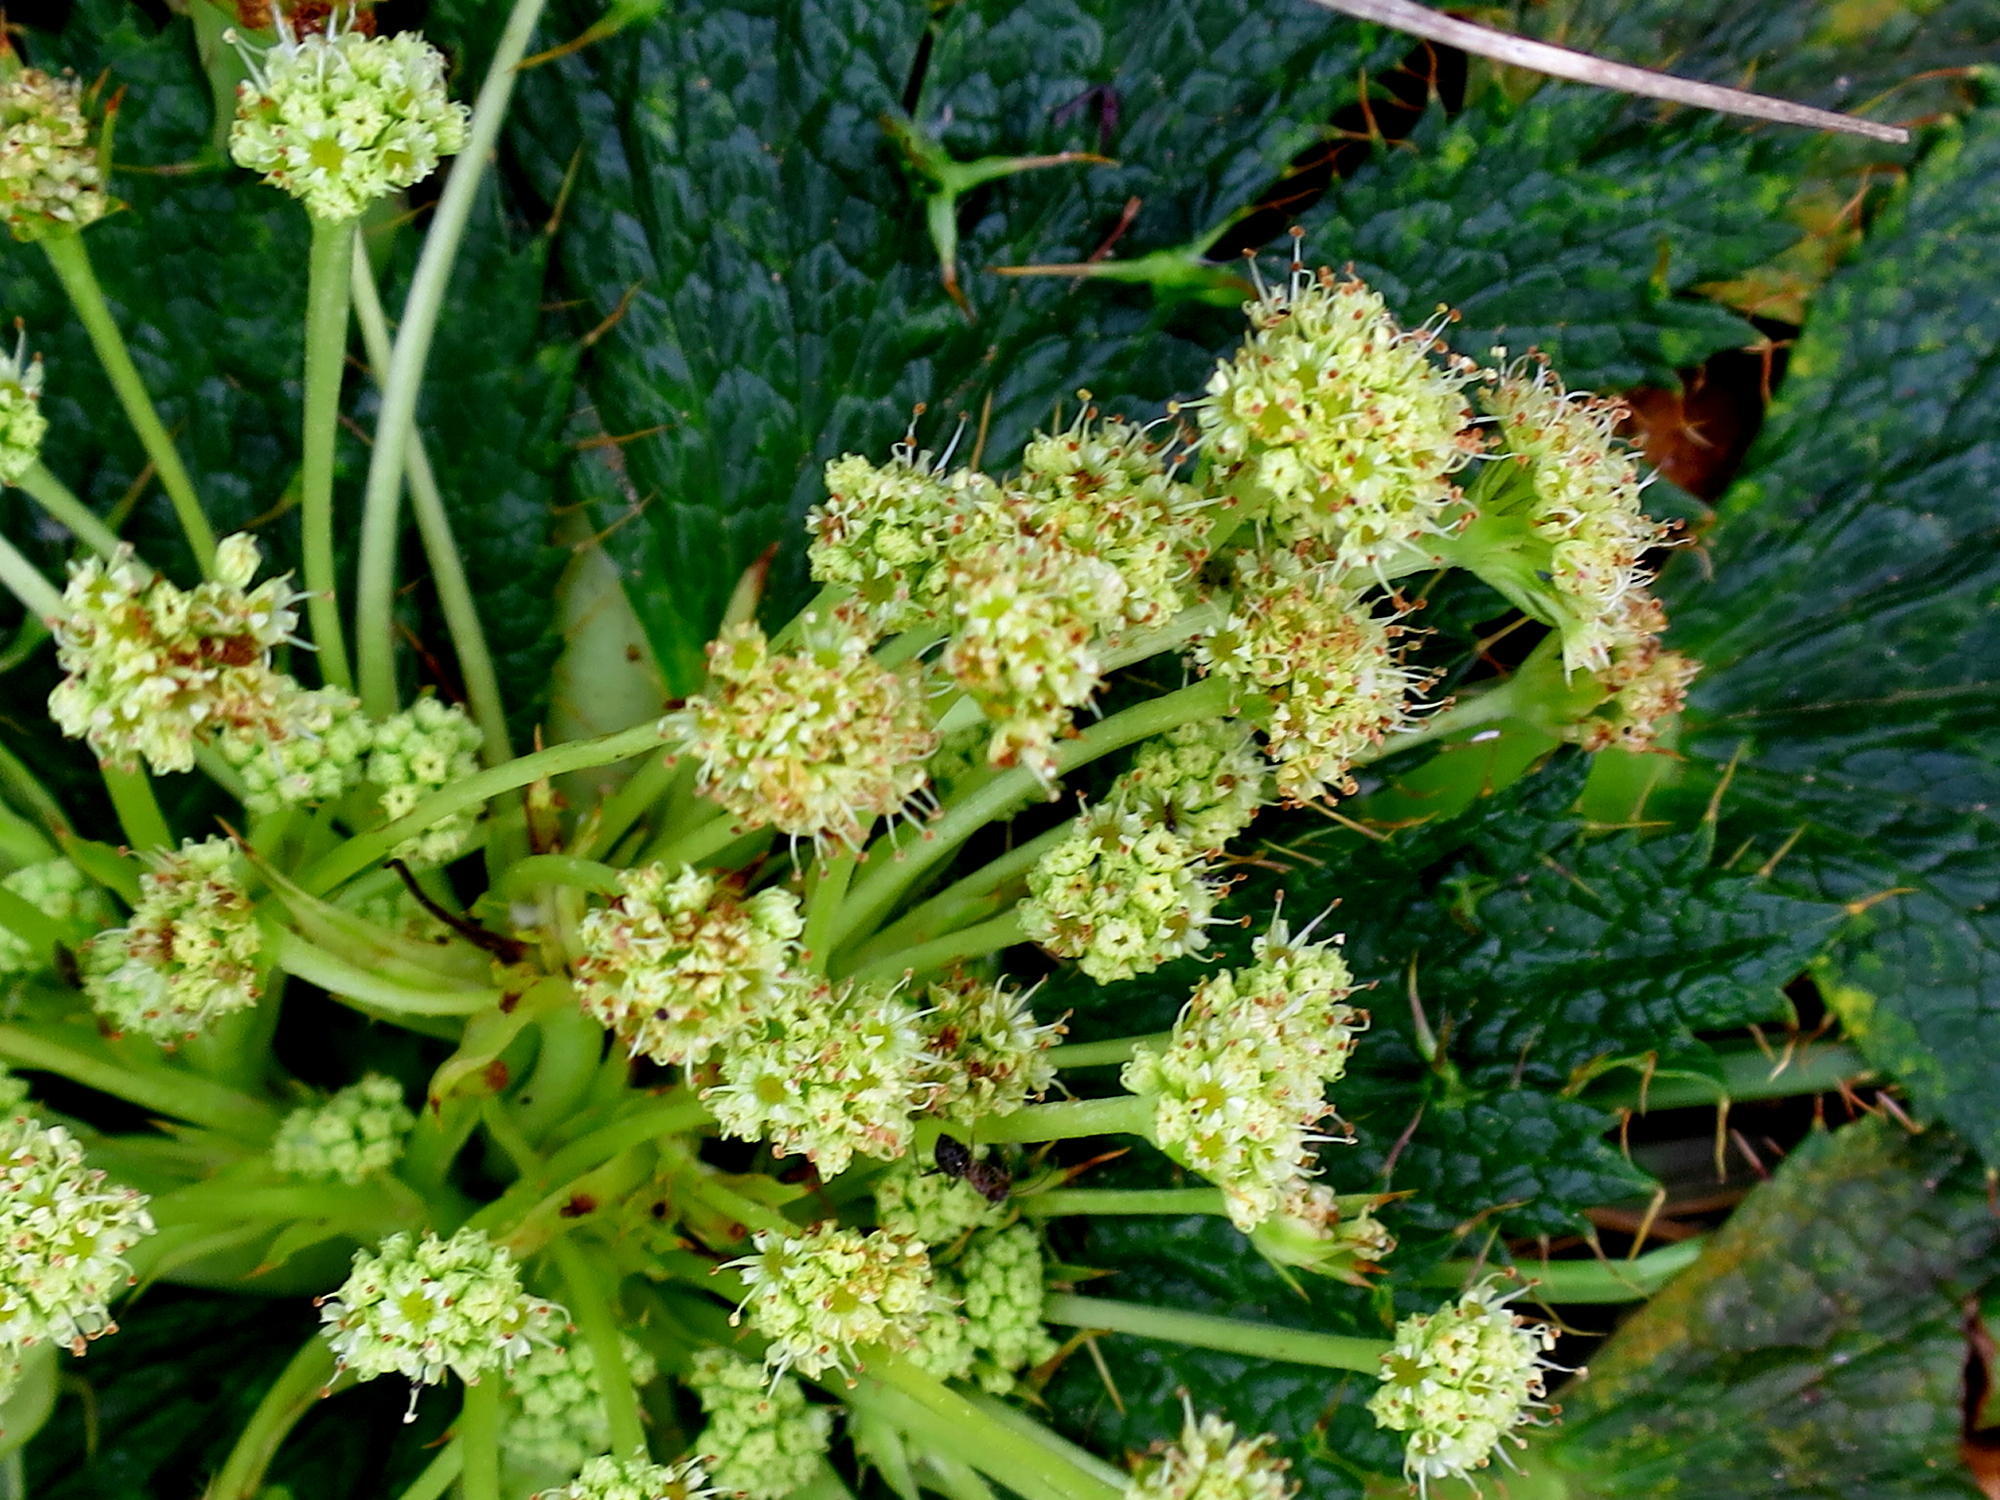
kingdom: Plantae
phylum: Tracheophyta
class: Magnoliopsida
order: Apiales
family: Apiaceae
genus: Arctopus
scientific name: Arctopus echinatus
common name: Platdoring
